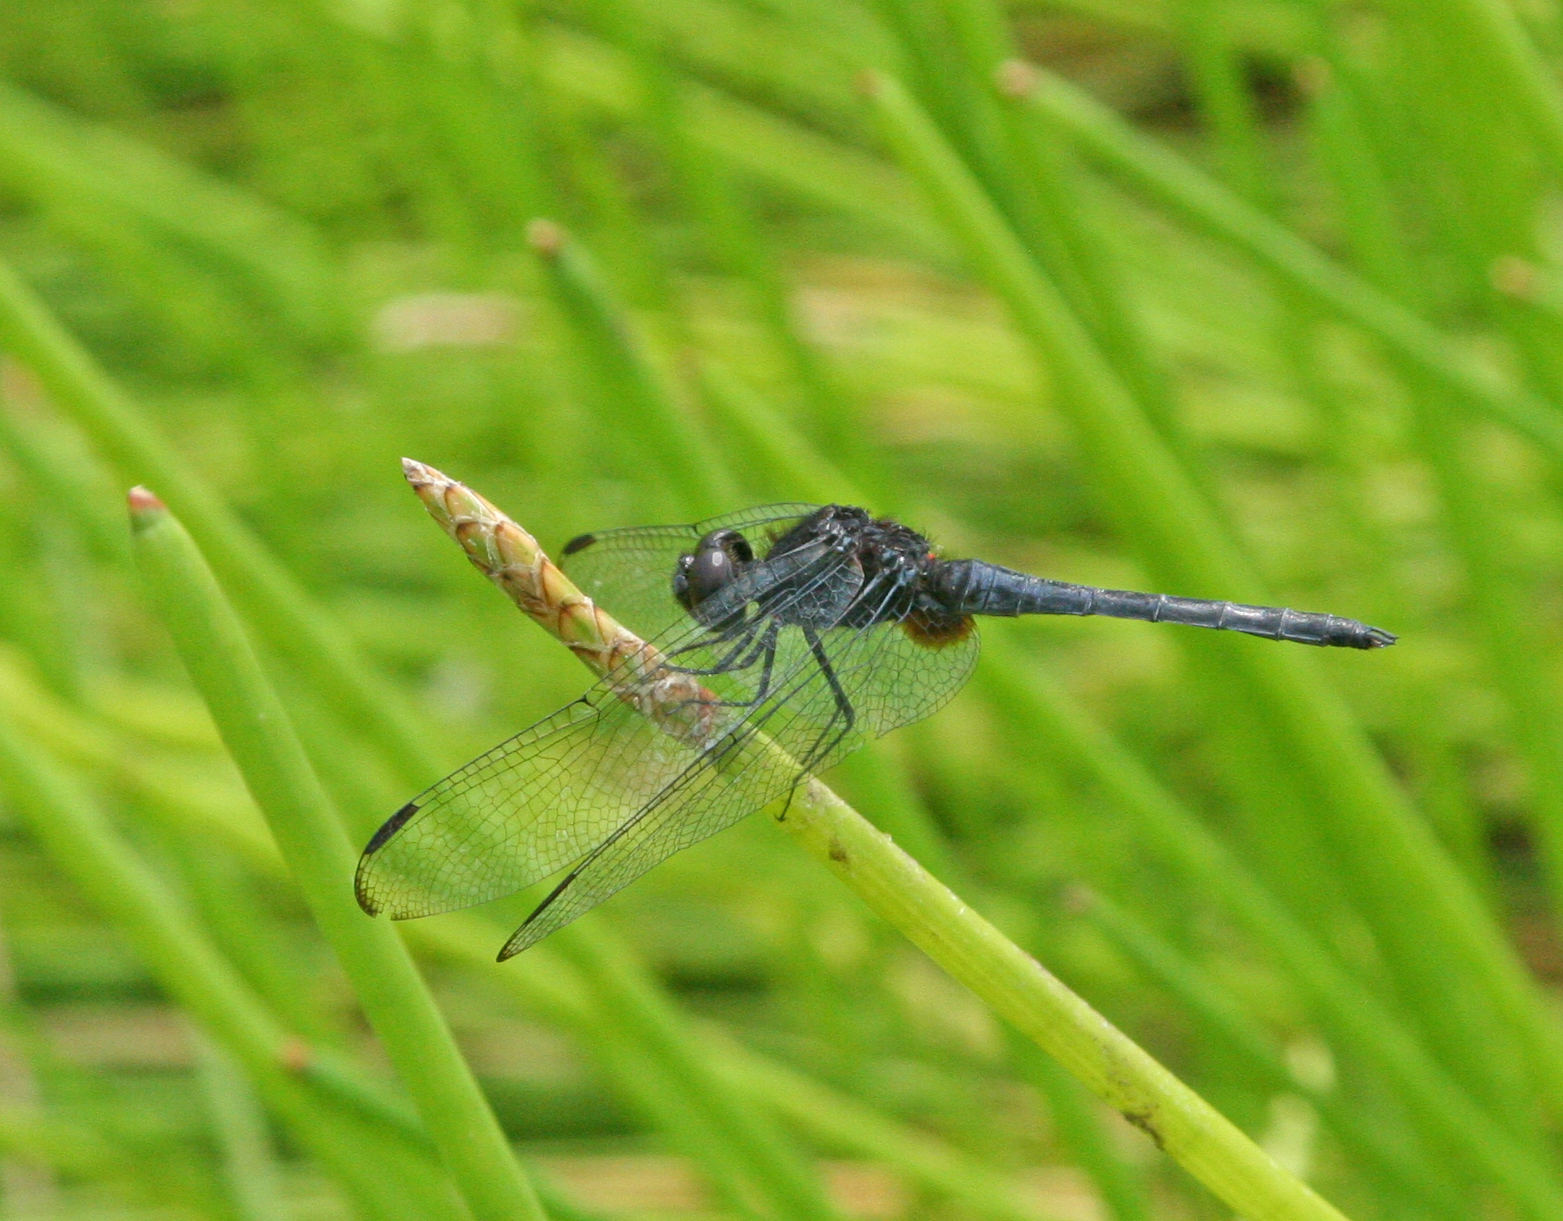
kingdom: Animalia
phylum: Arthropoda
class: Insecta
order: Odonata
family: Libellulidae
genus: Indothemis
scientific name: Indothemis limbata
